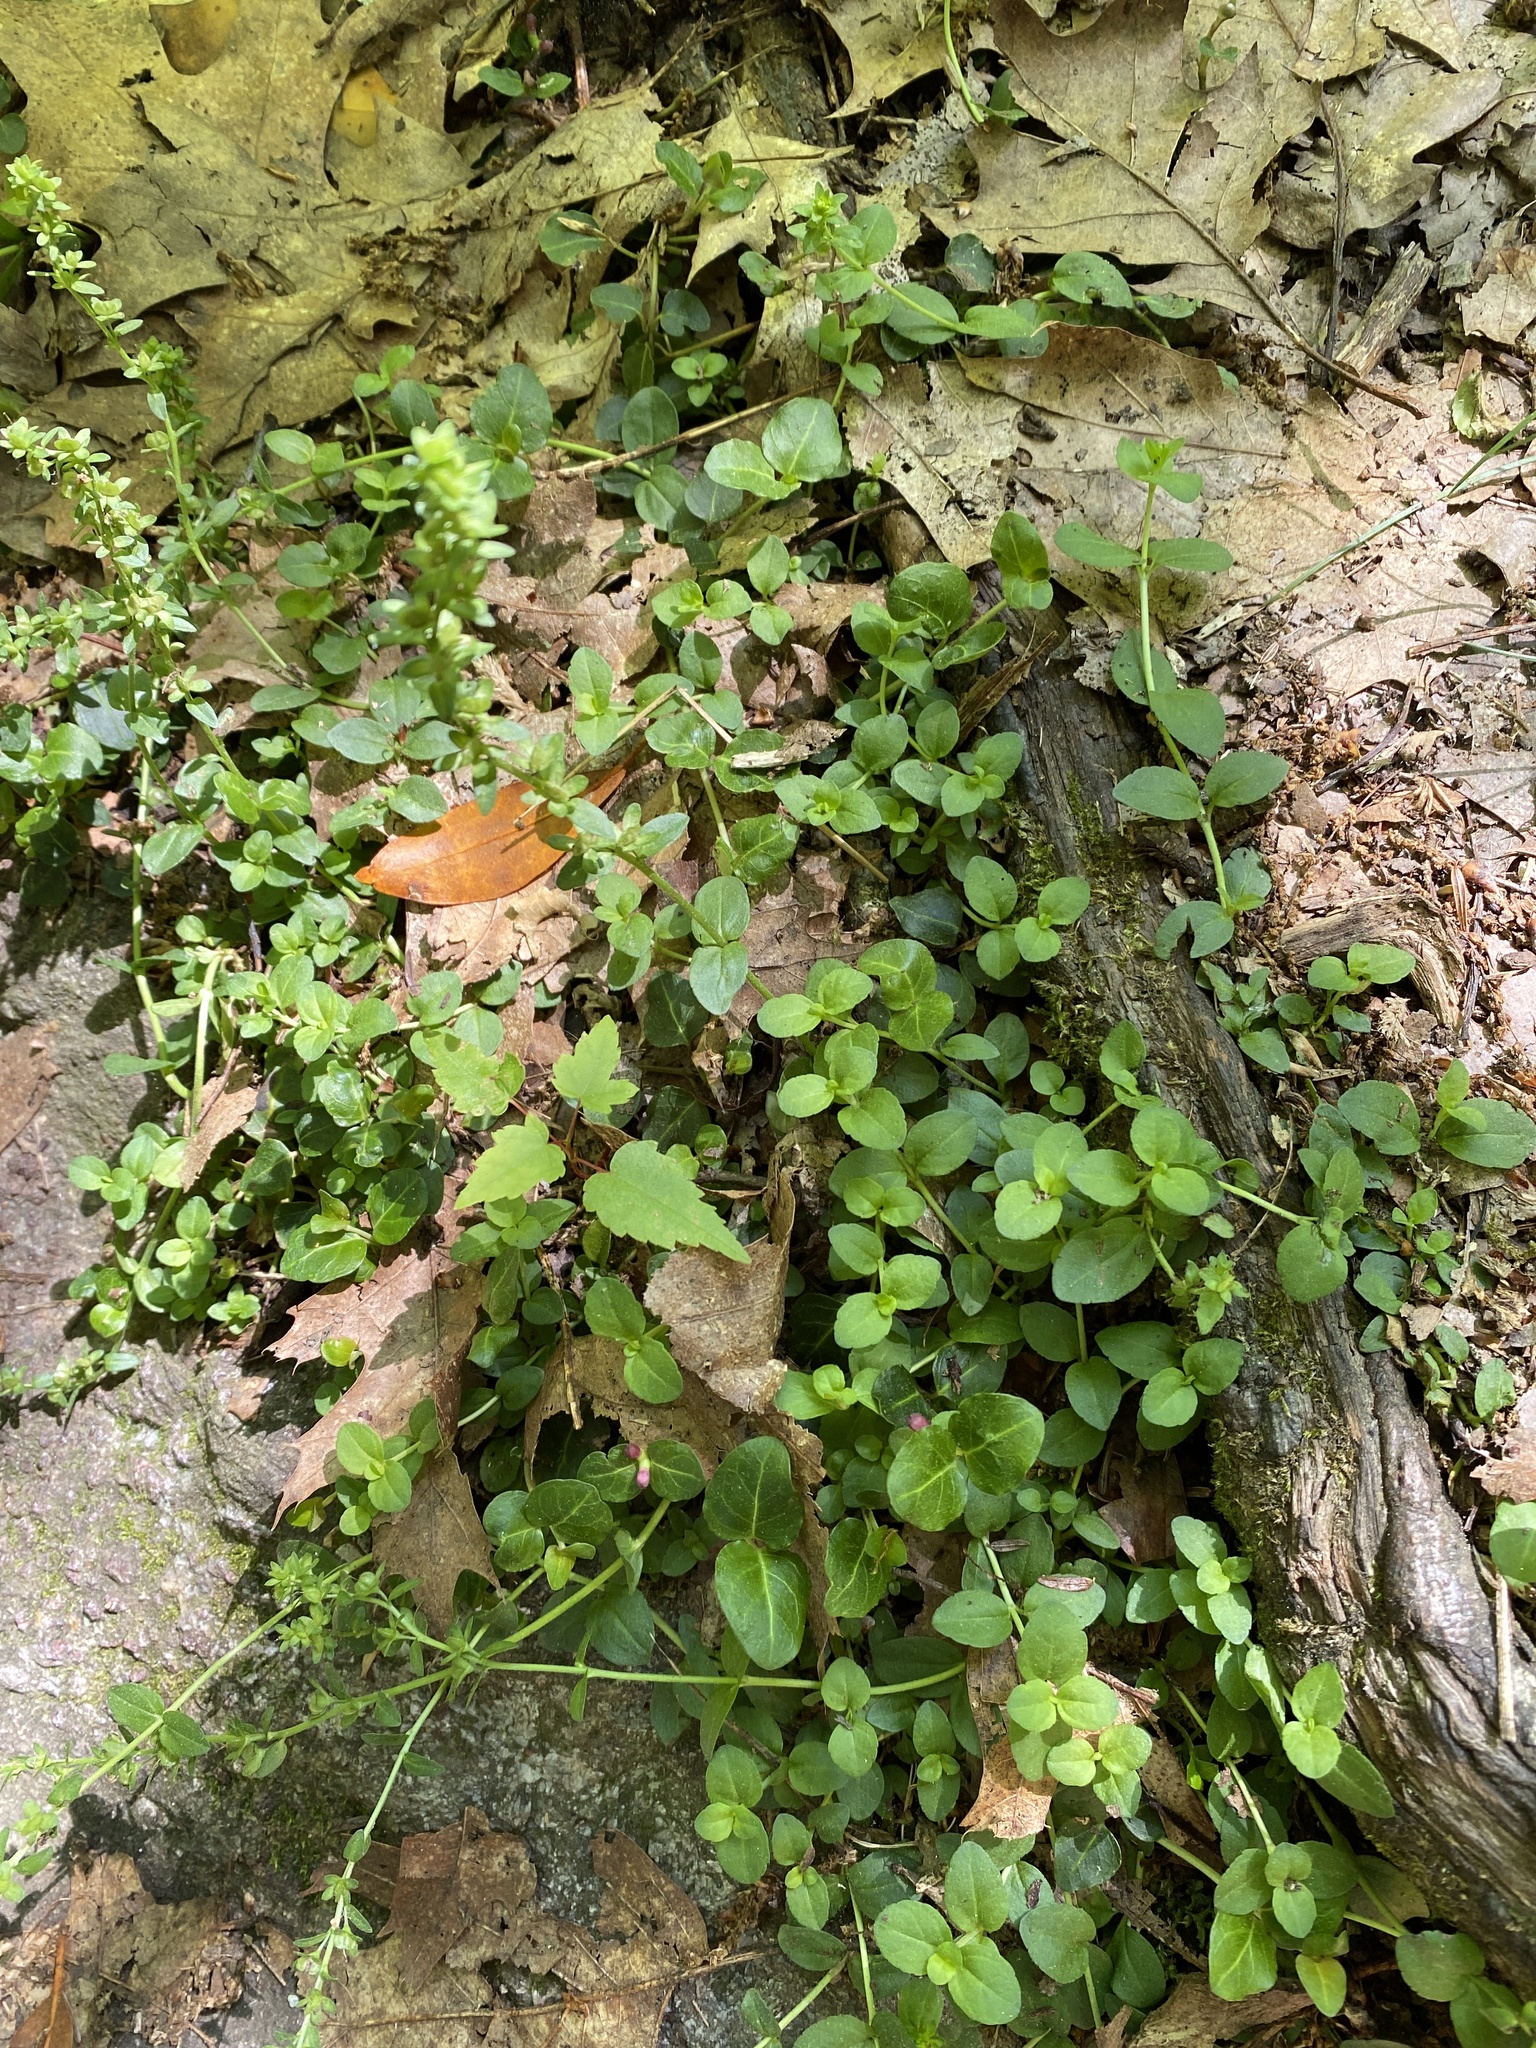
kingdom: Plantae
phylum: Tracheophyta
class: Magnoliopsida
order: Lamiales
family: Plantaginaceae
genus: Veronica
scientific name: Veronica serpyllifolia
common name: Thyme-leaved speedwell
